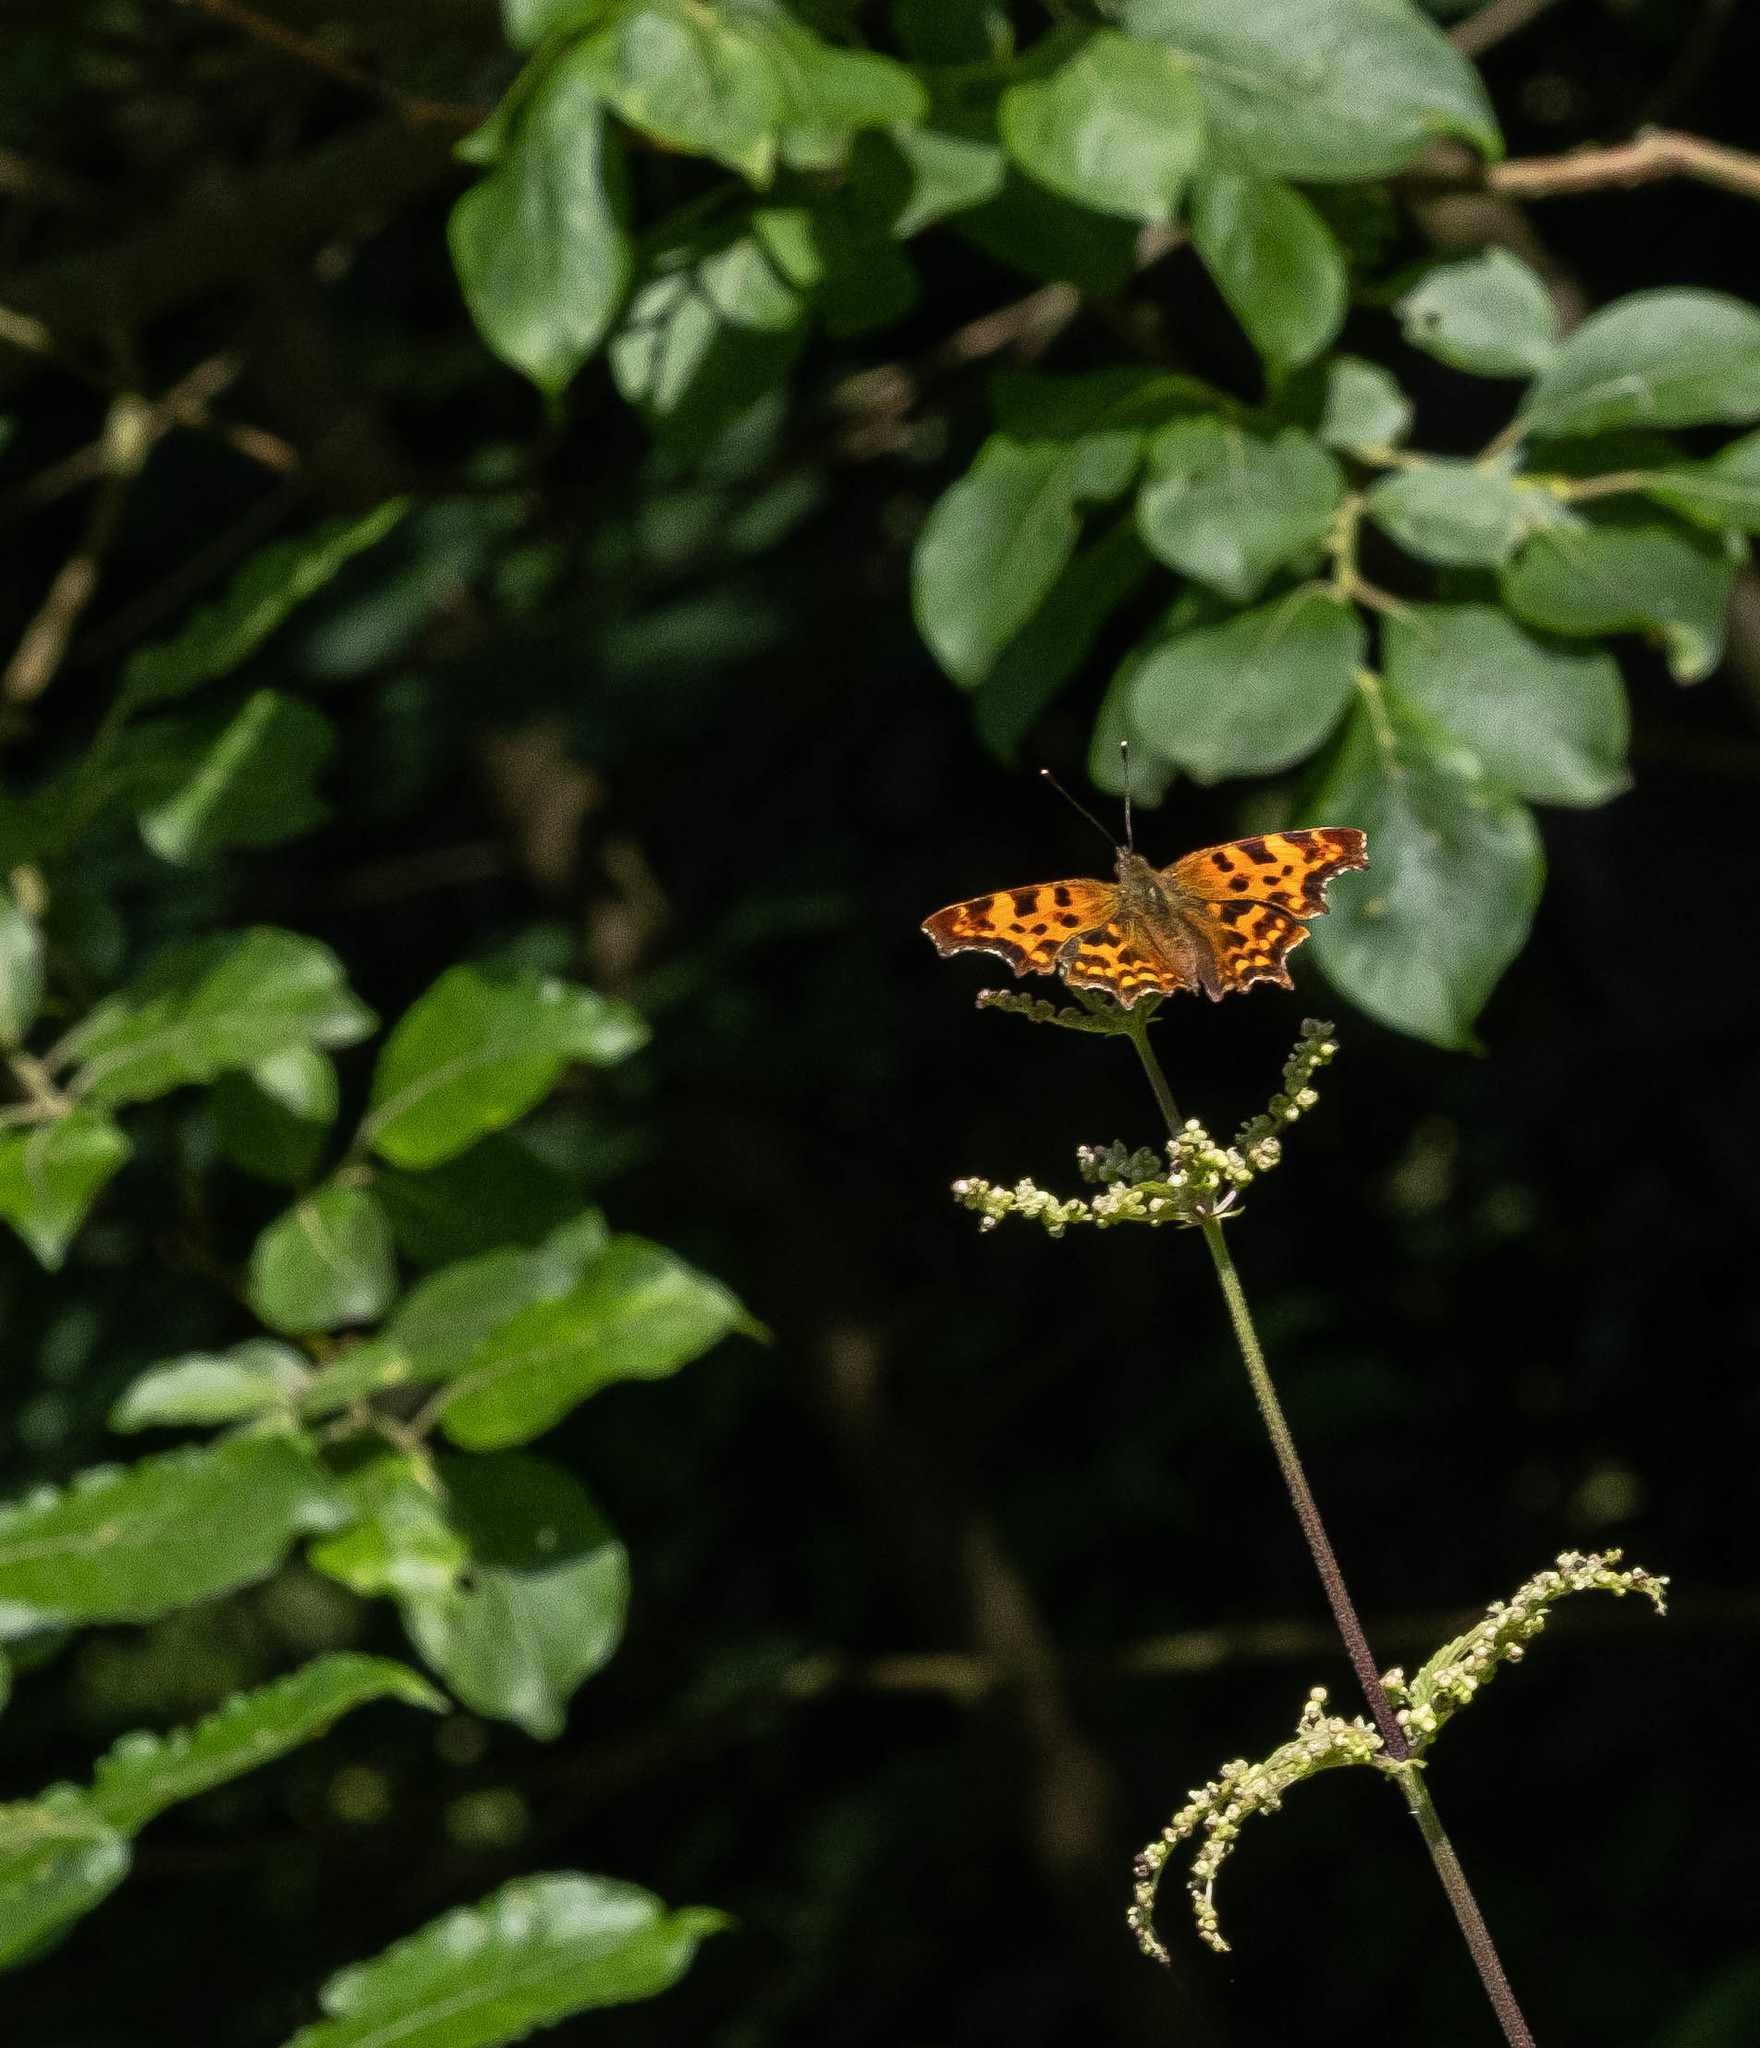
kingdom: Animalia
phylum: Arthropoda
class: Insecta
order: Lepidoptera
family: Nymphalidae
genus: Polygonia
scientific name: Polygonia c-album
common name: Comma
